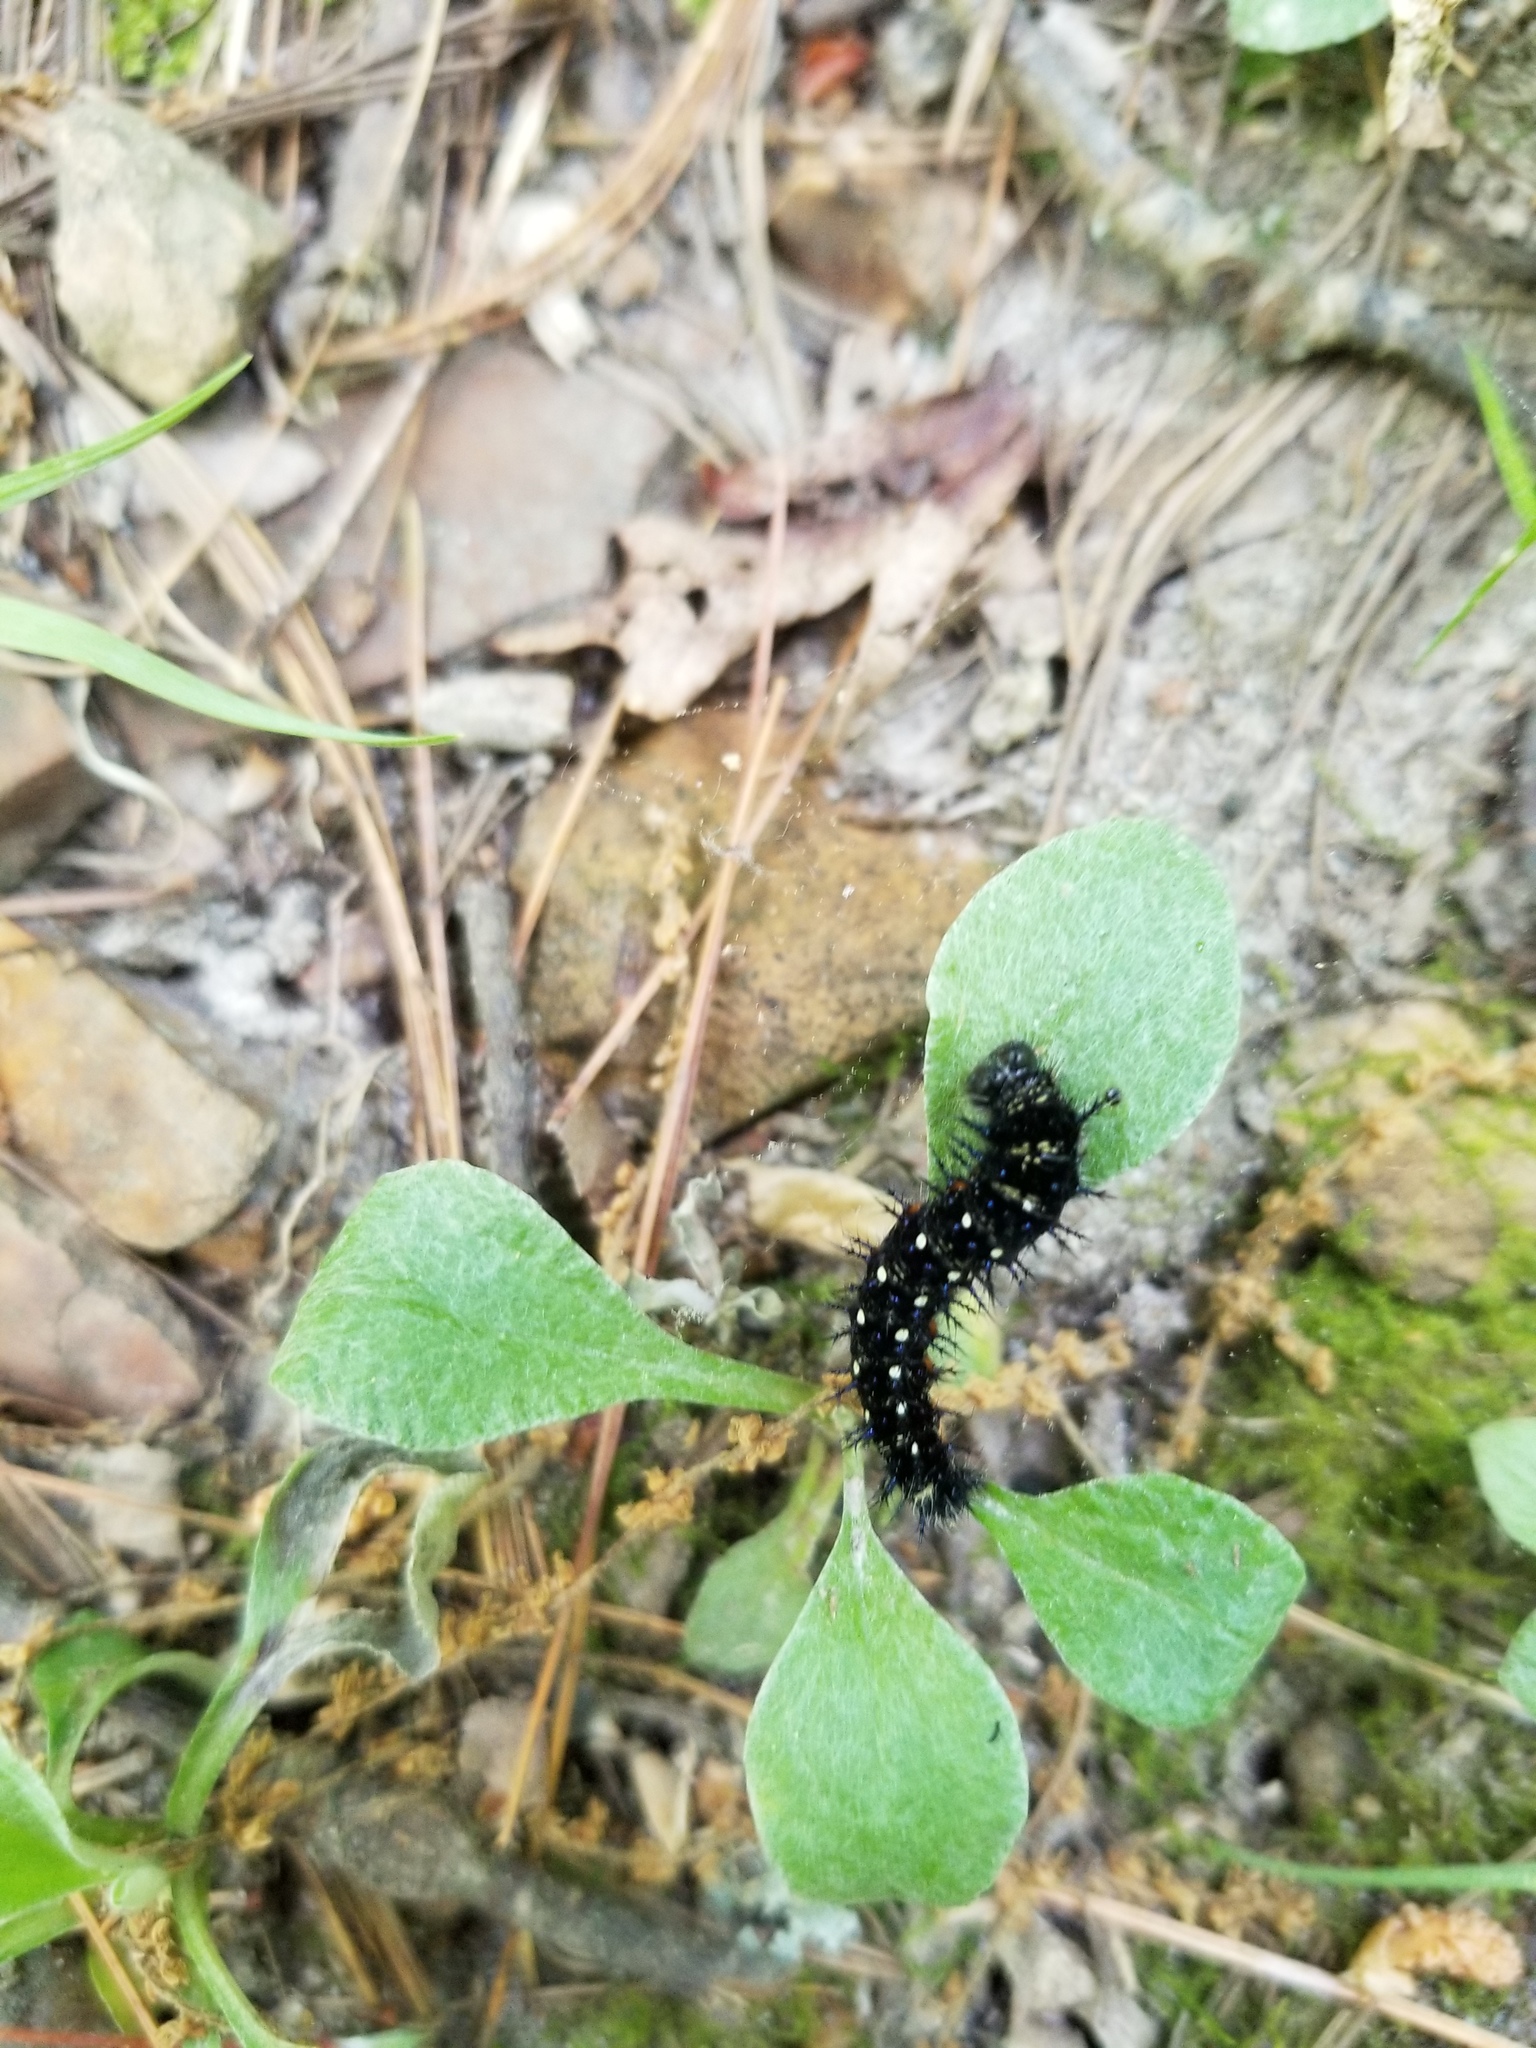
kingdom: Animalia
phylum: Arthropoda
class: Insecta
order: Lepidoptera
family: Nymphalidae
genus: Vanessa
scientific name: Vanessa virginiensis
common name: American lady
